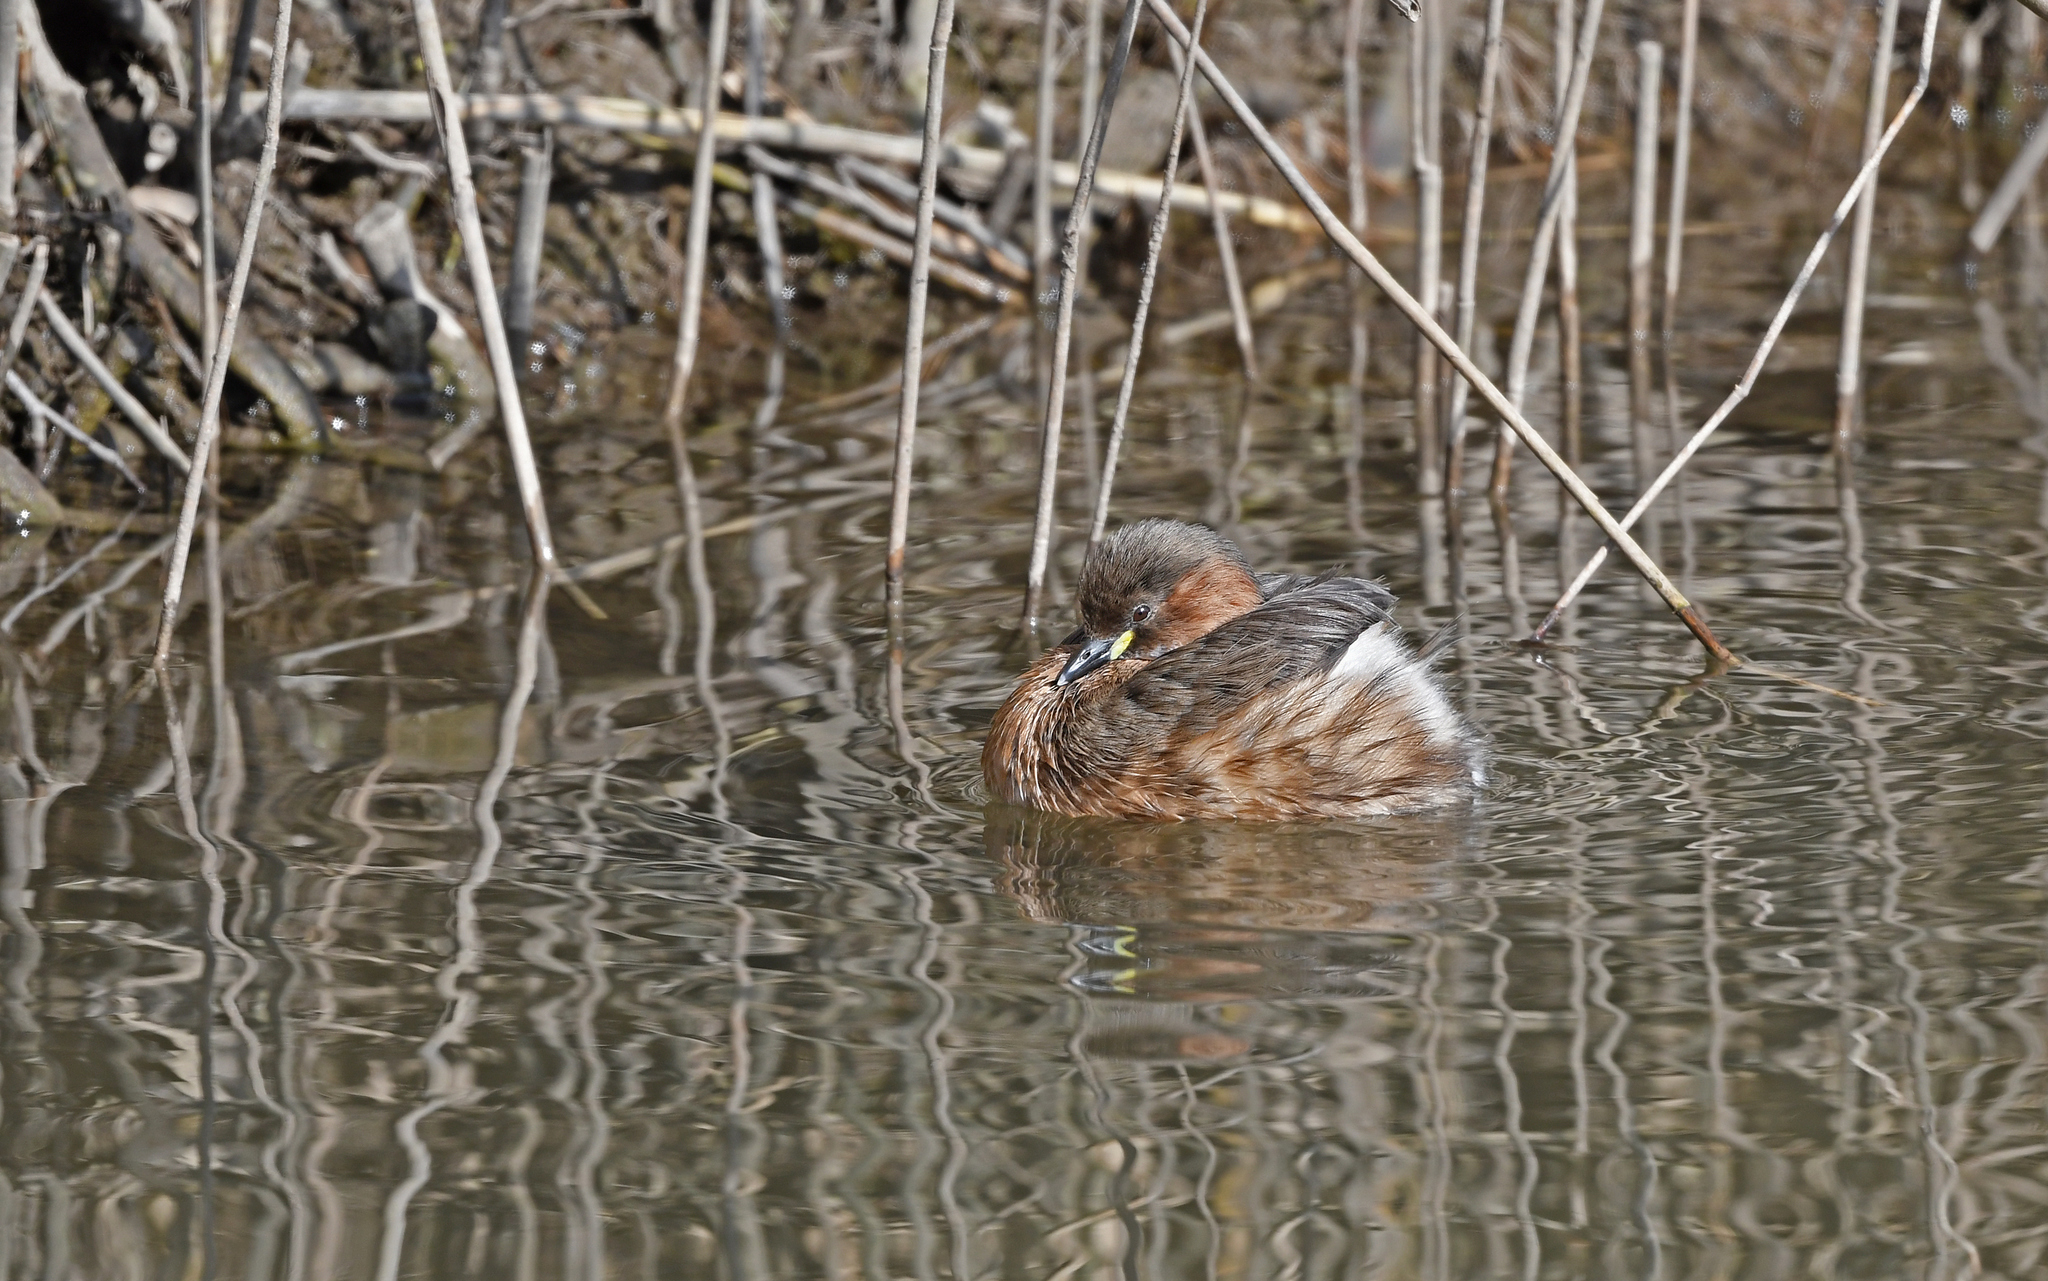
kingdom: Animalia
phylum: Chordata
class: Aves
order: Podicipediformes
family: Podicipedidae
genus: Tachybaptus
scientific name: Tachybaptus ruficollis
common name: Little grebe
